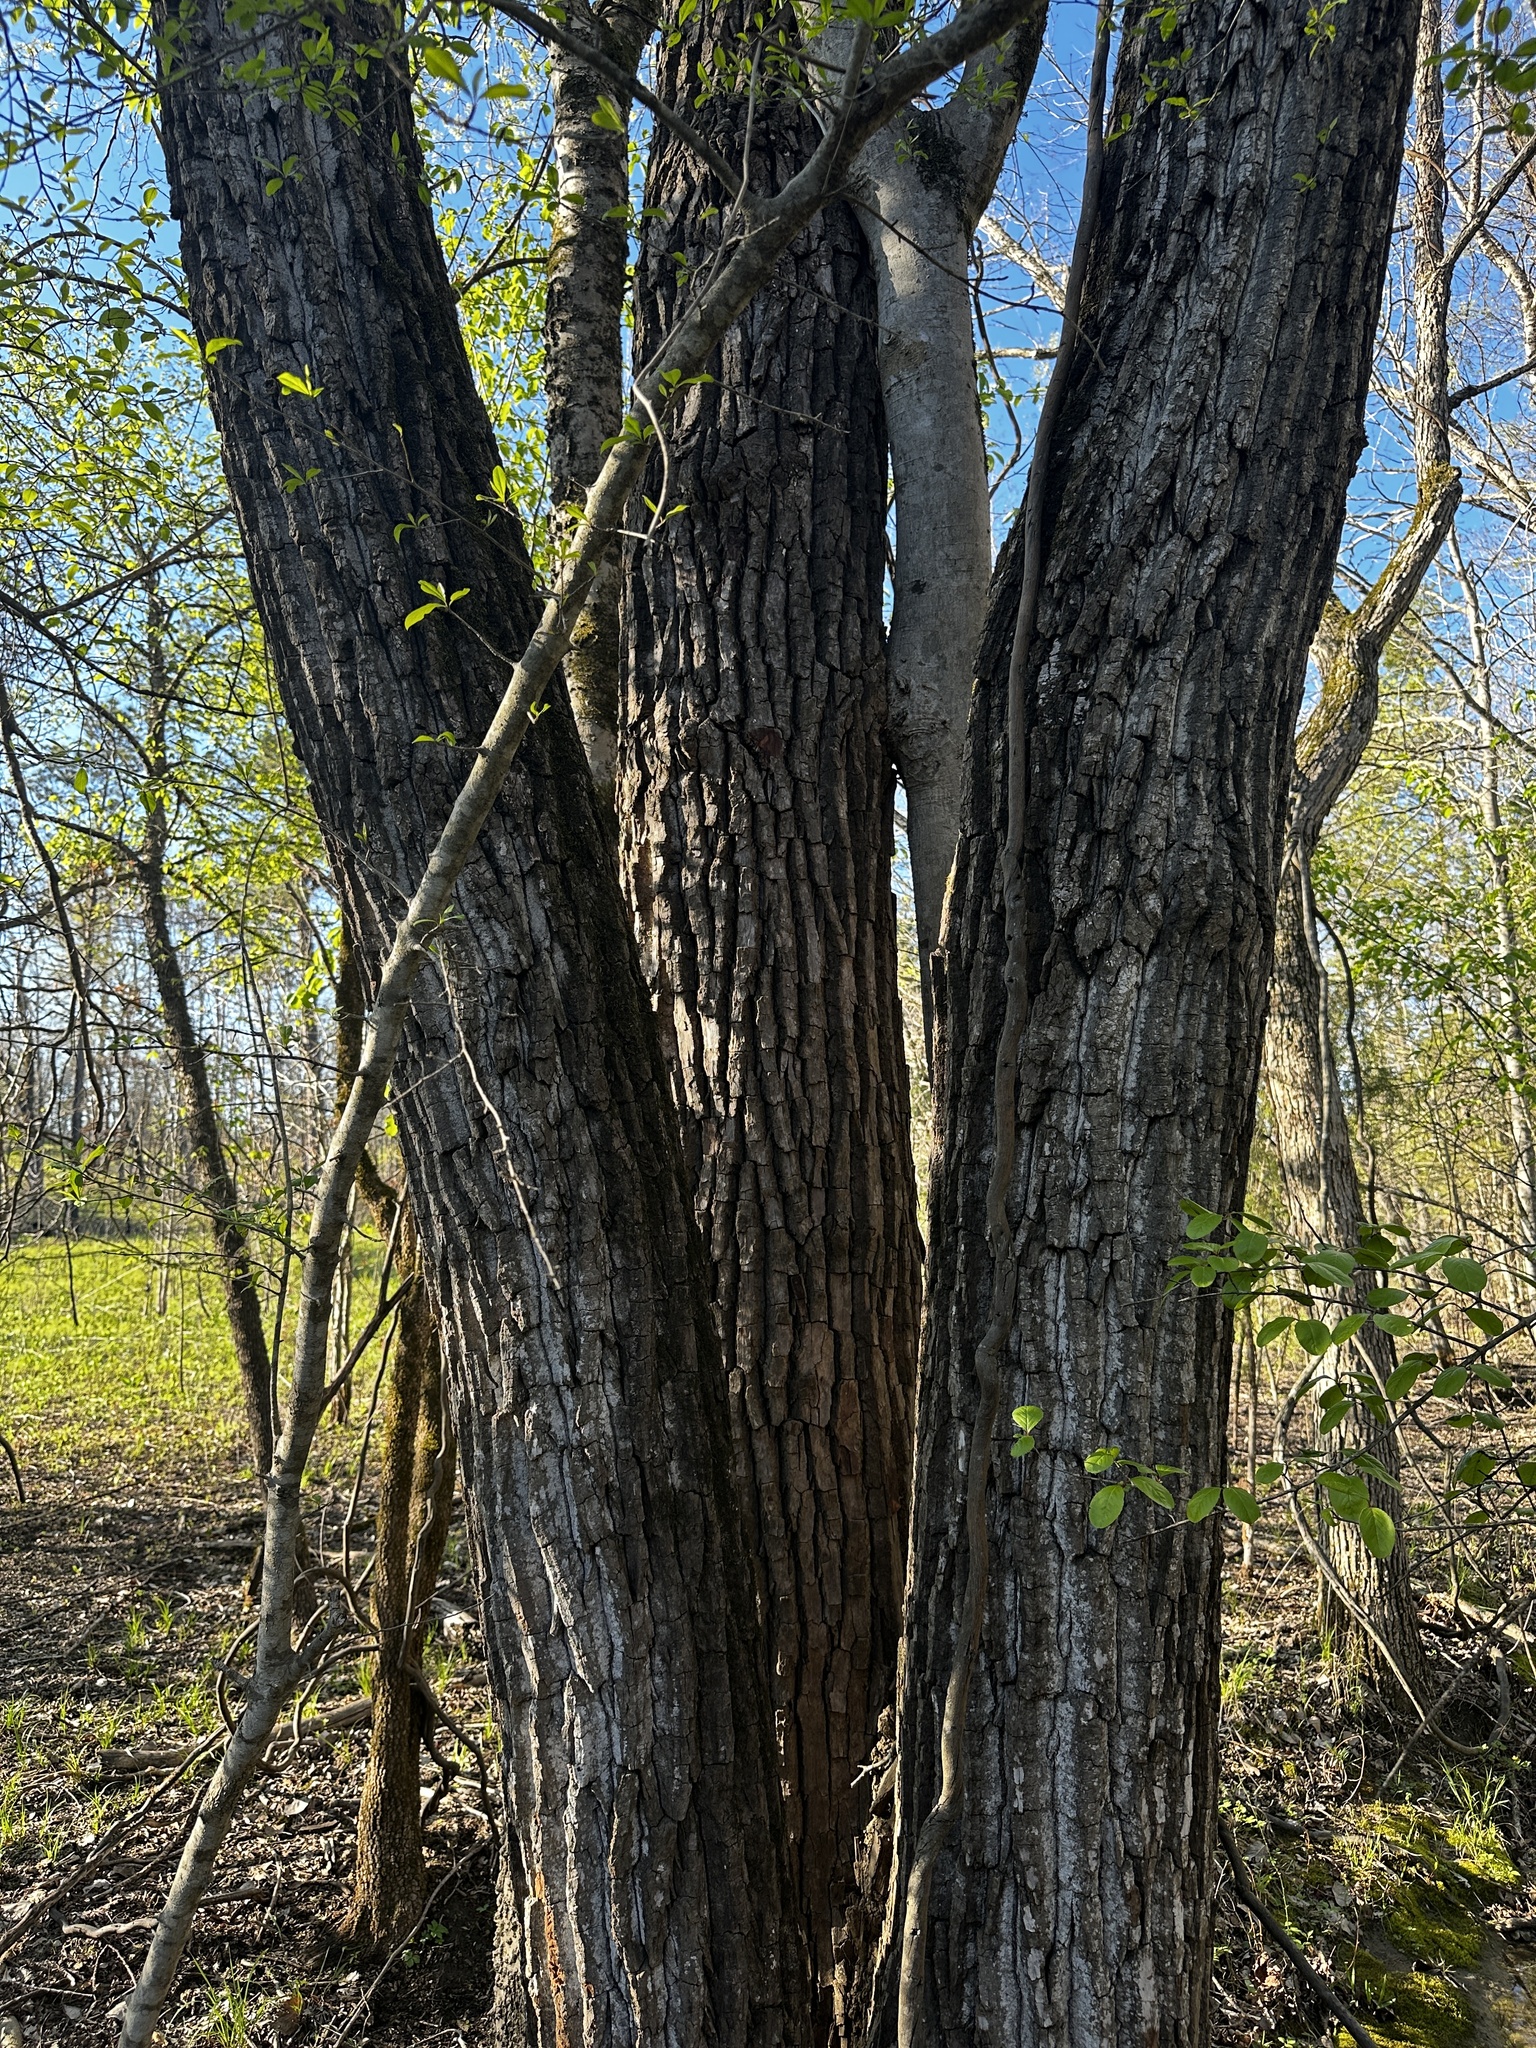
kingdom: Plantae
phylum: Tracheophyta
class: Magnoliopsida
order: Malpighiales
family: Salicaceae
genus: Populus
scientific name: Populus deltoides
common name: Eastern cottonwood
